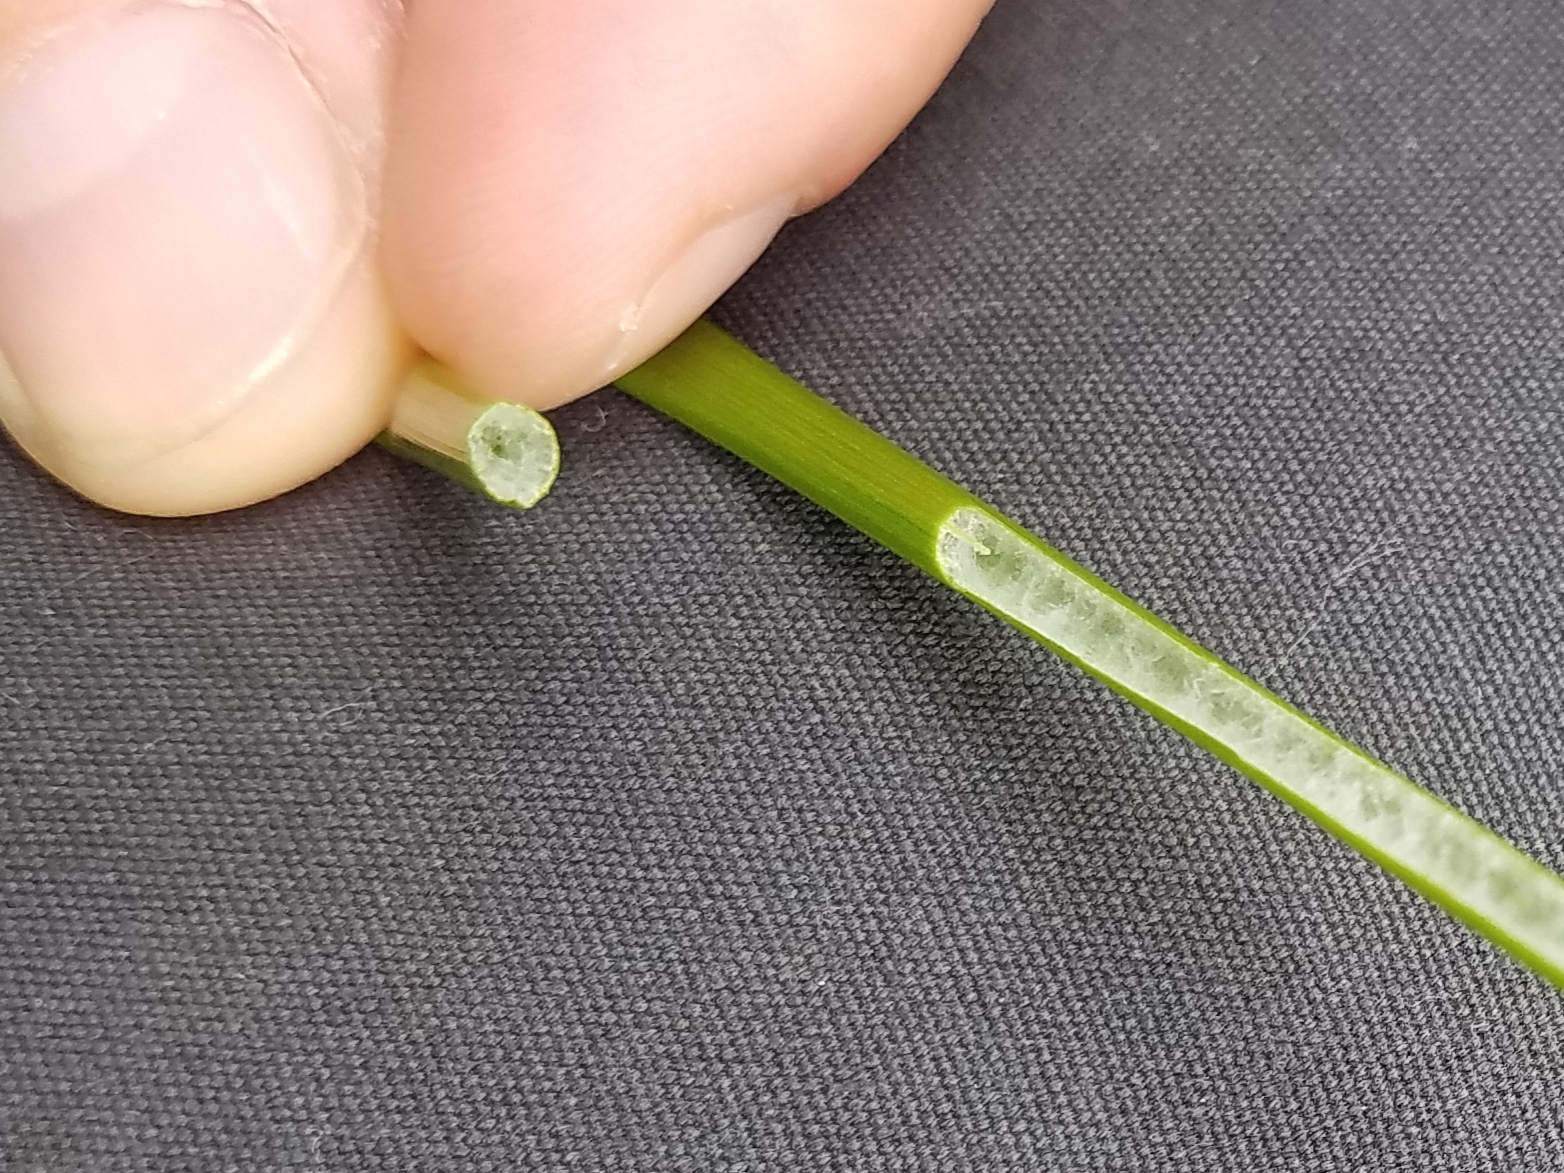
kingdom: Plantae
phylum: Tracheophyta
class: Liliopsida
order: Poales
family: Juncaceae
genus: Juncus
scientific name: Juncus effusus
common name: Soft rush
